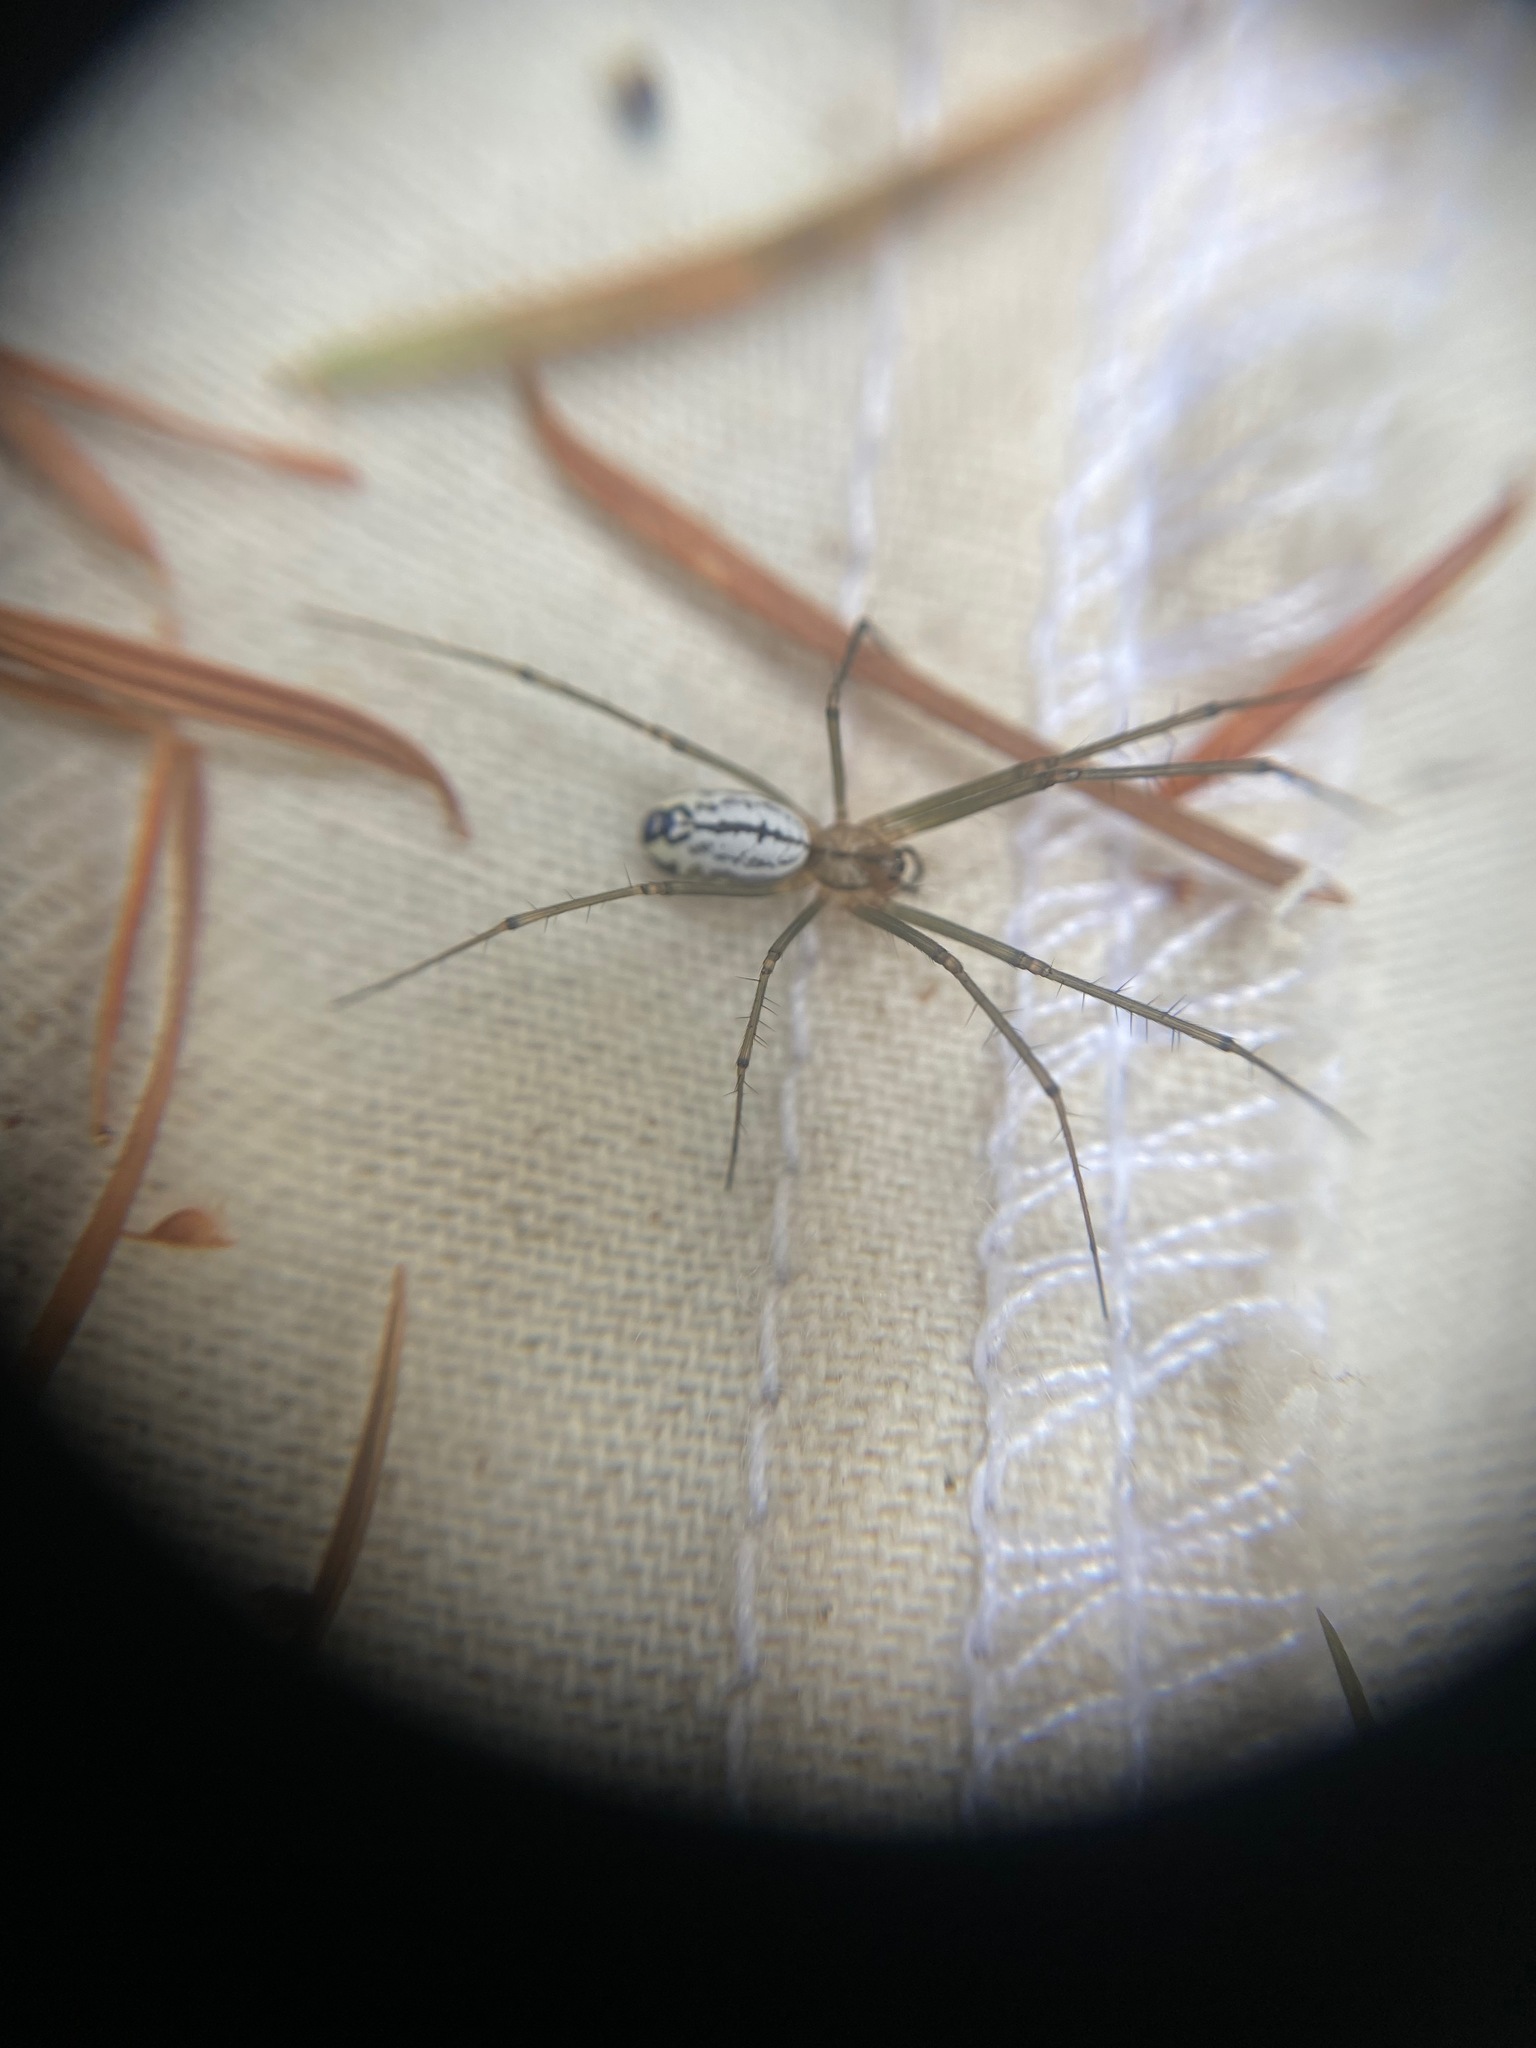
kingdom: Animalia
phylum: Arthropoda
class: Arachnida
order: Araneae
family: Linyphiidae
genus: Neriene
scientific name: Neriene litigiosa
